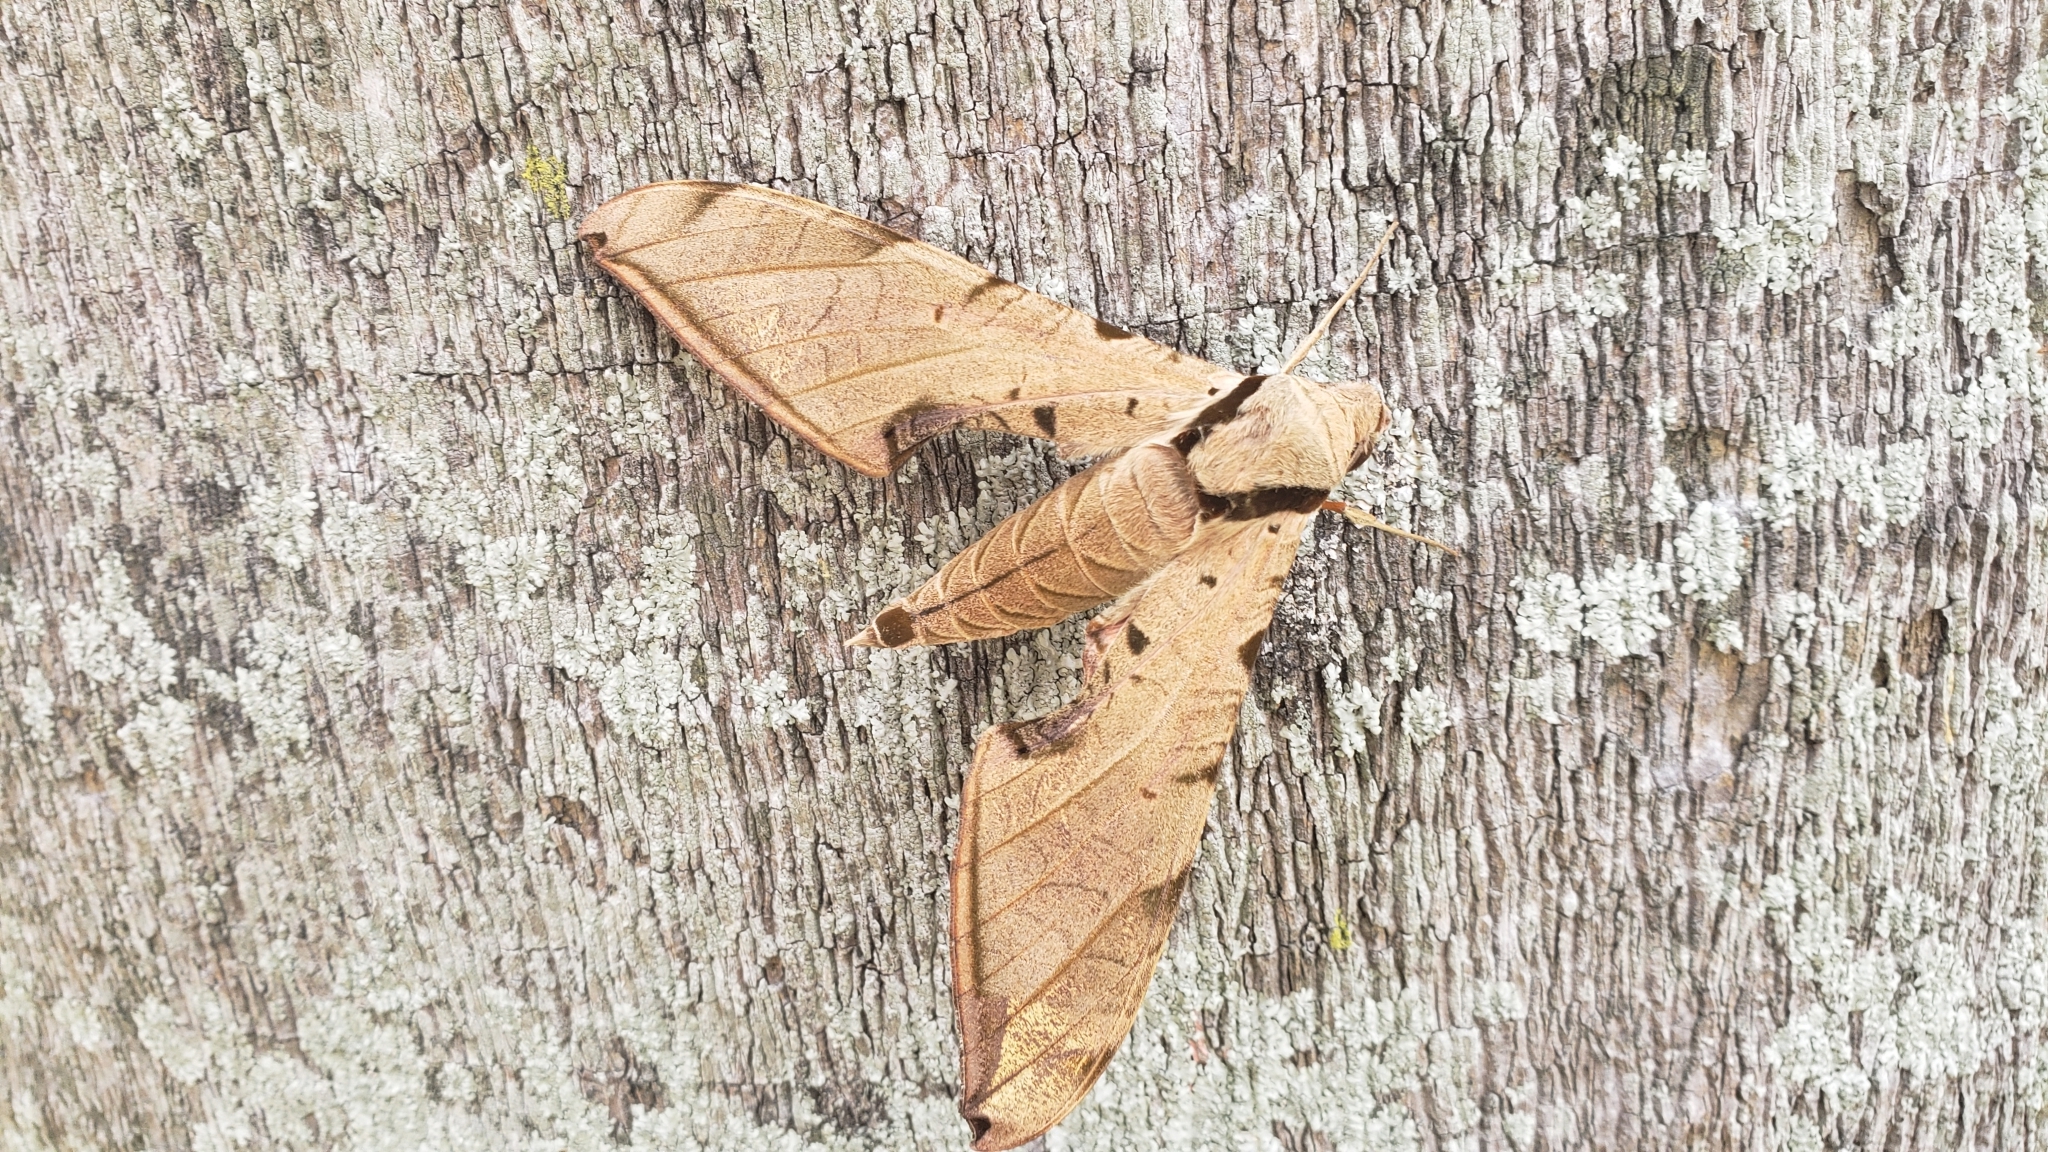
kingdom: Animalia
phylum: Arthropoda
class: Insecta
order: Lepidoptera
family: Sphingidae
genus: Protambulyx
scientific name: Protambulyx strigilis
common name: Streaked sphinx
